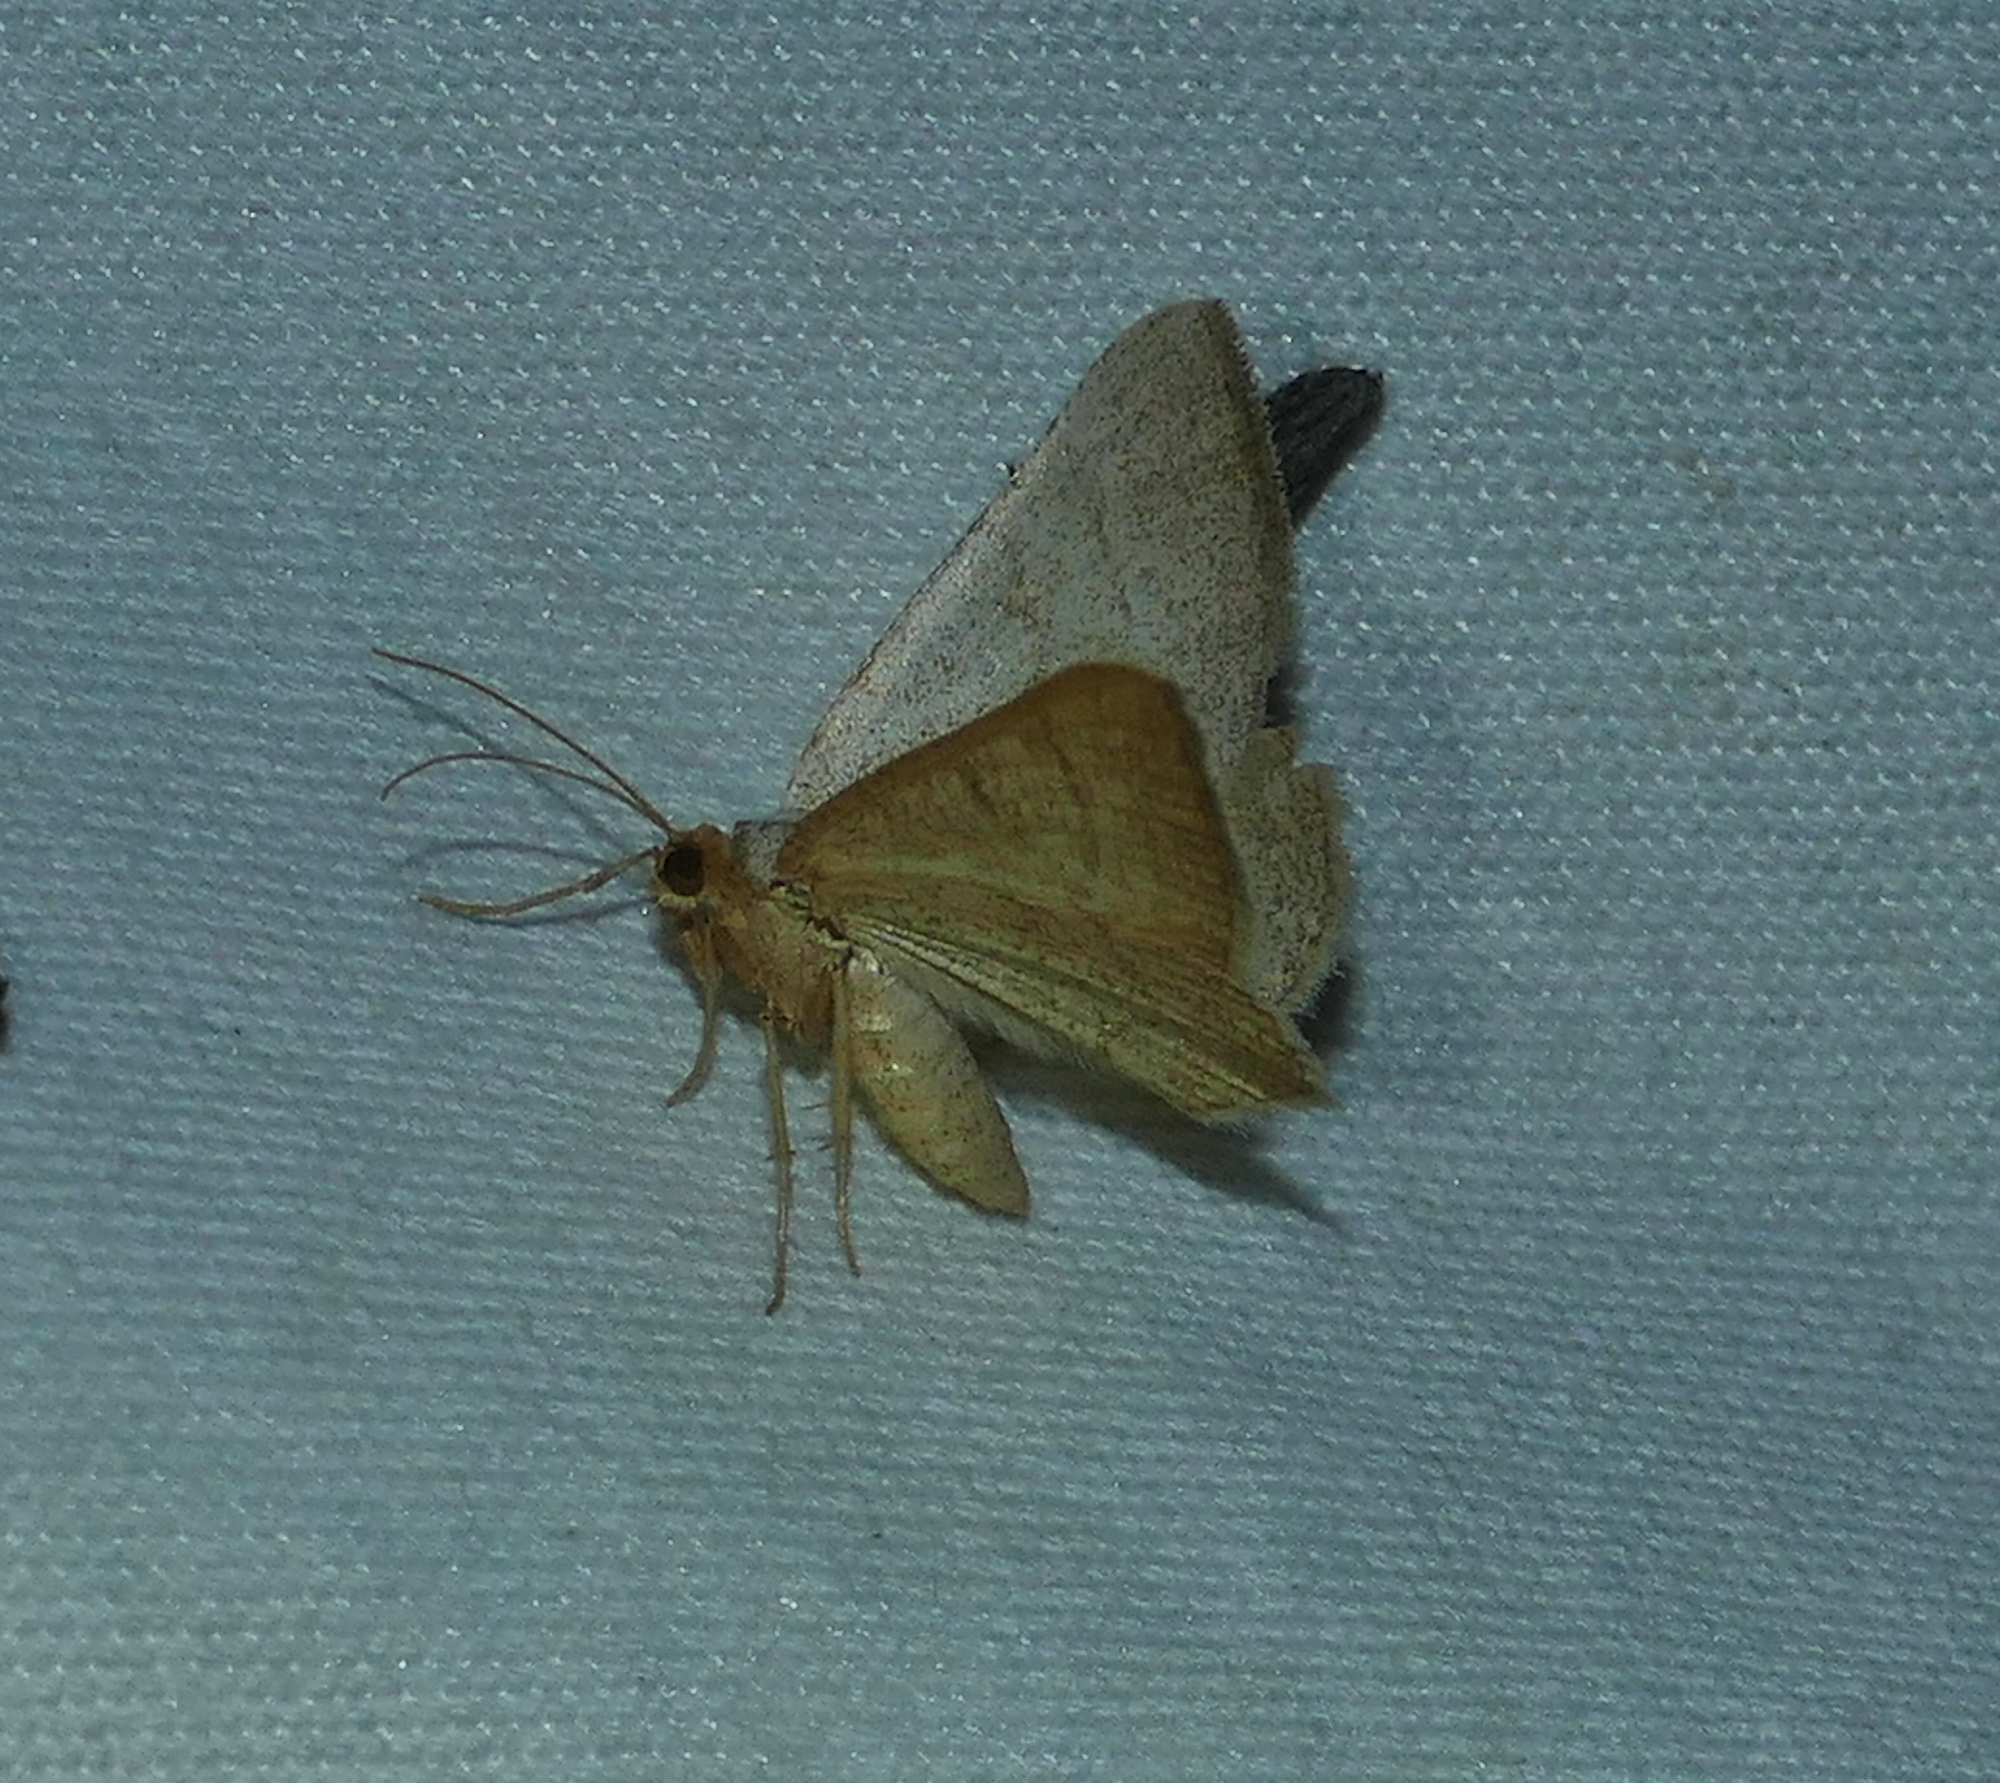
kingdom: Animalia
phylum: Arthropoda
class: Insecta
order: Lepidoptera
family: Geometridae
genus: Macaria
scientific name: Macaria tenebrosata
